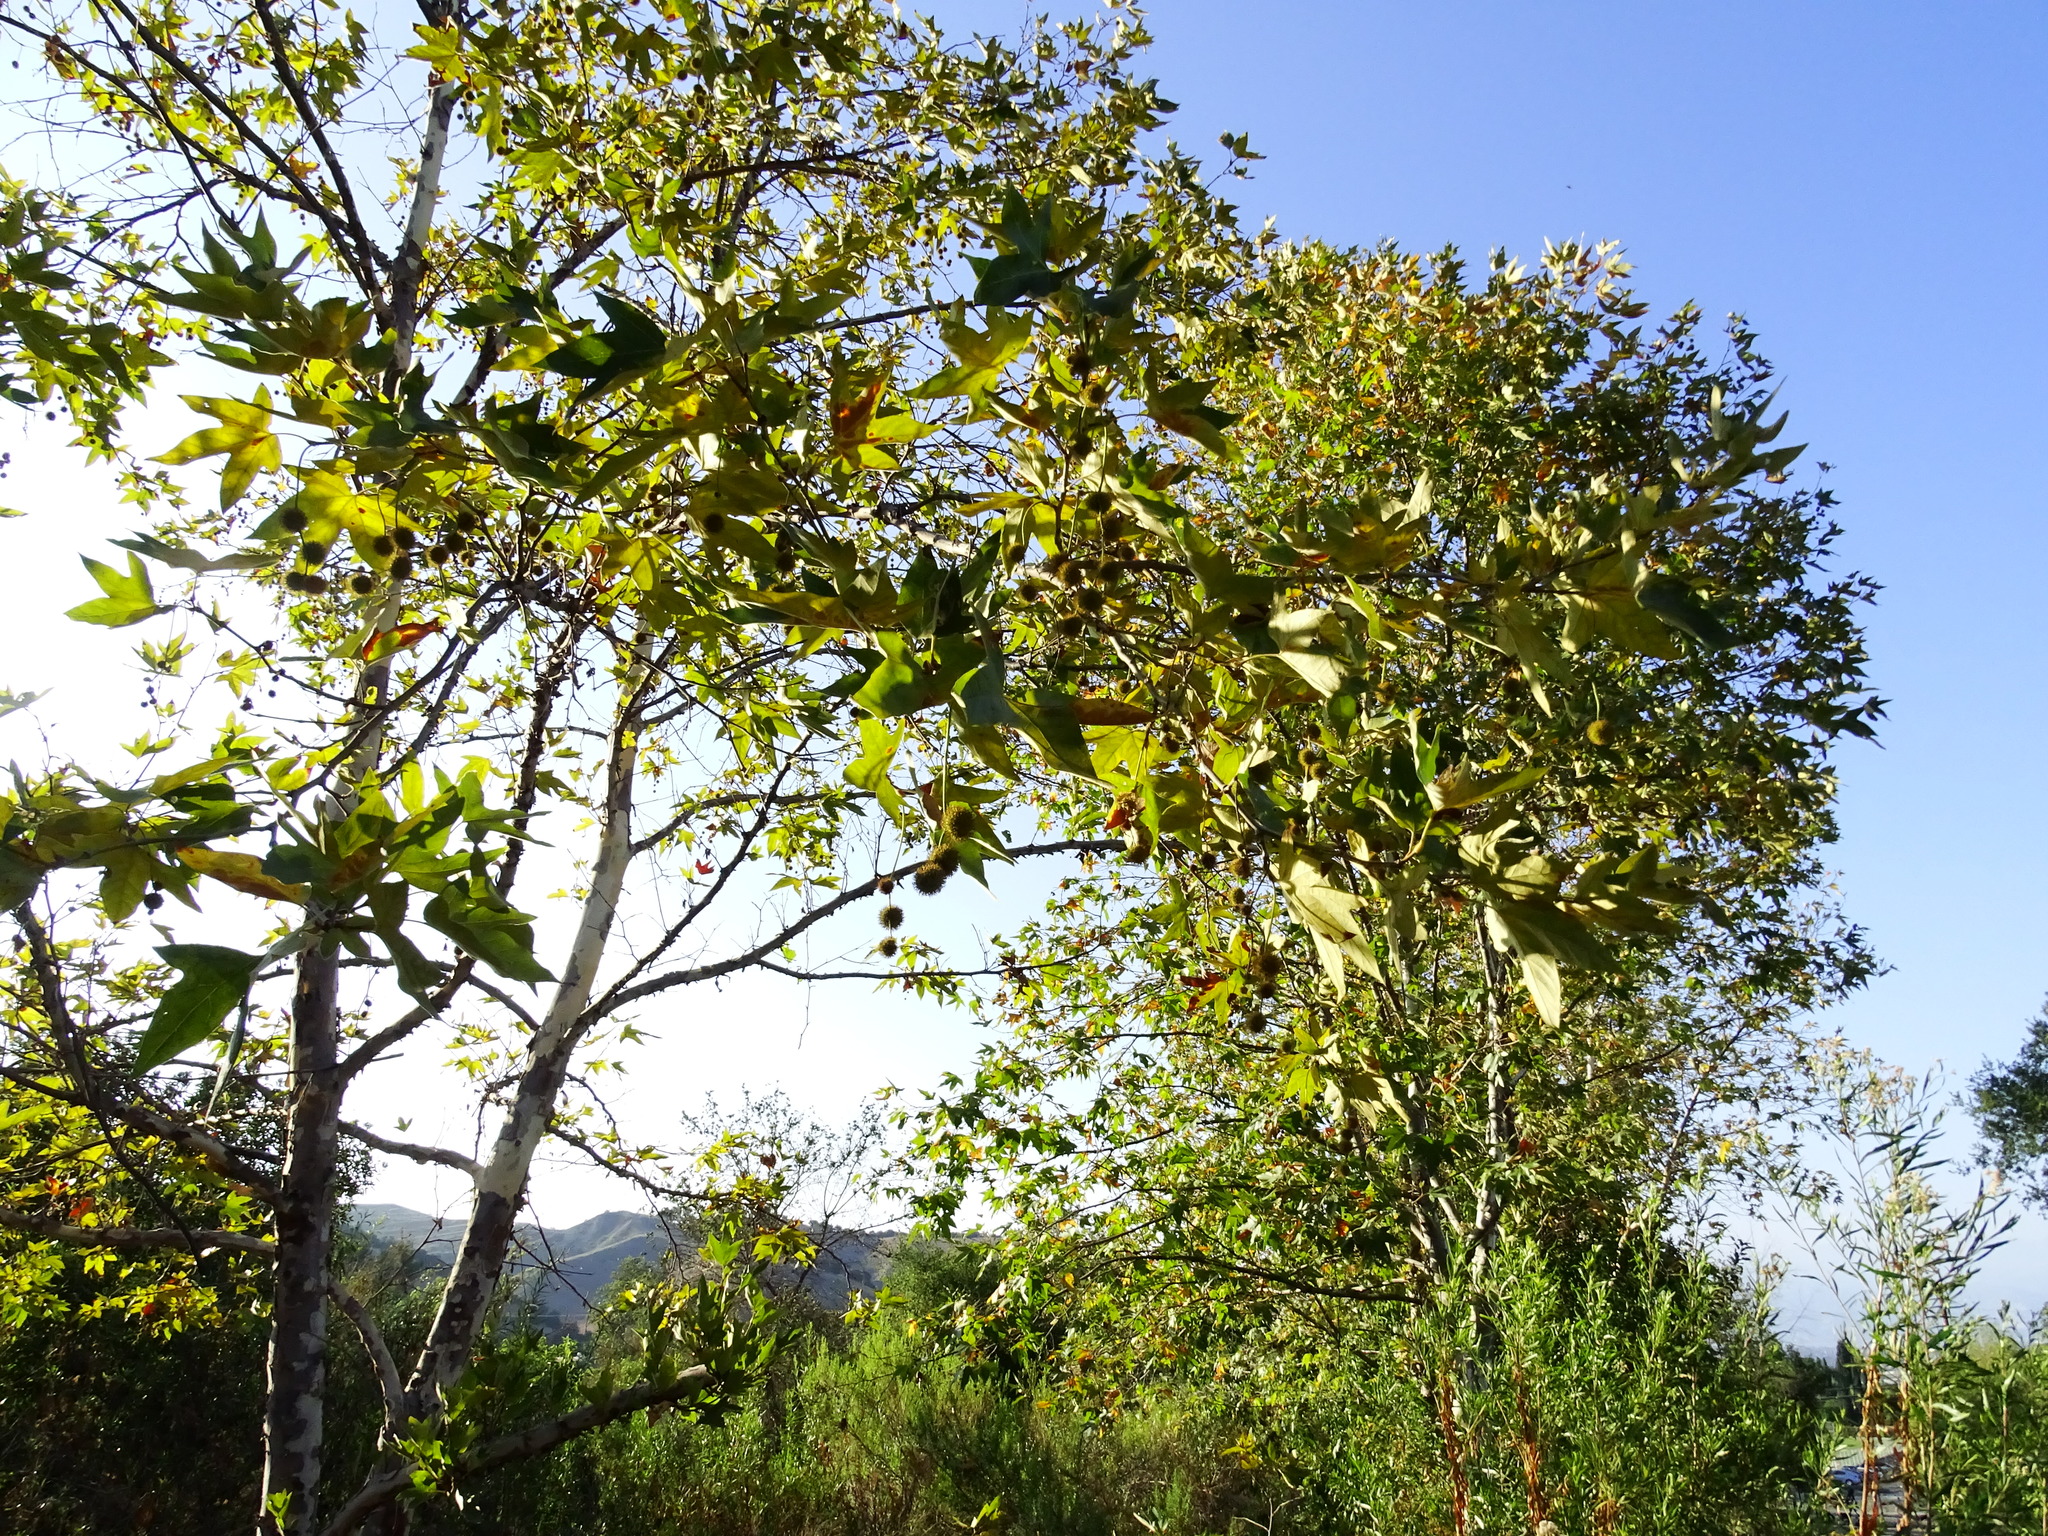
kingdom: Plantae
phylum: Tracheophyta
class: Magnoliopsida
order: Proteales
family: Platanaceae
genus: Platanus
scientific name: Platanus racemosa
